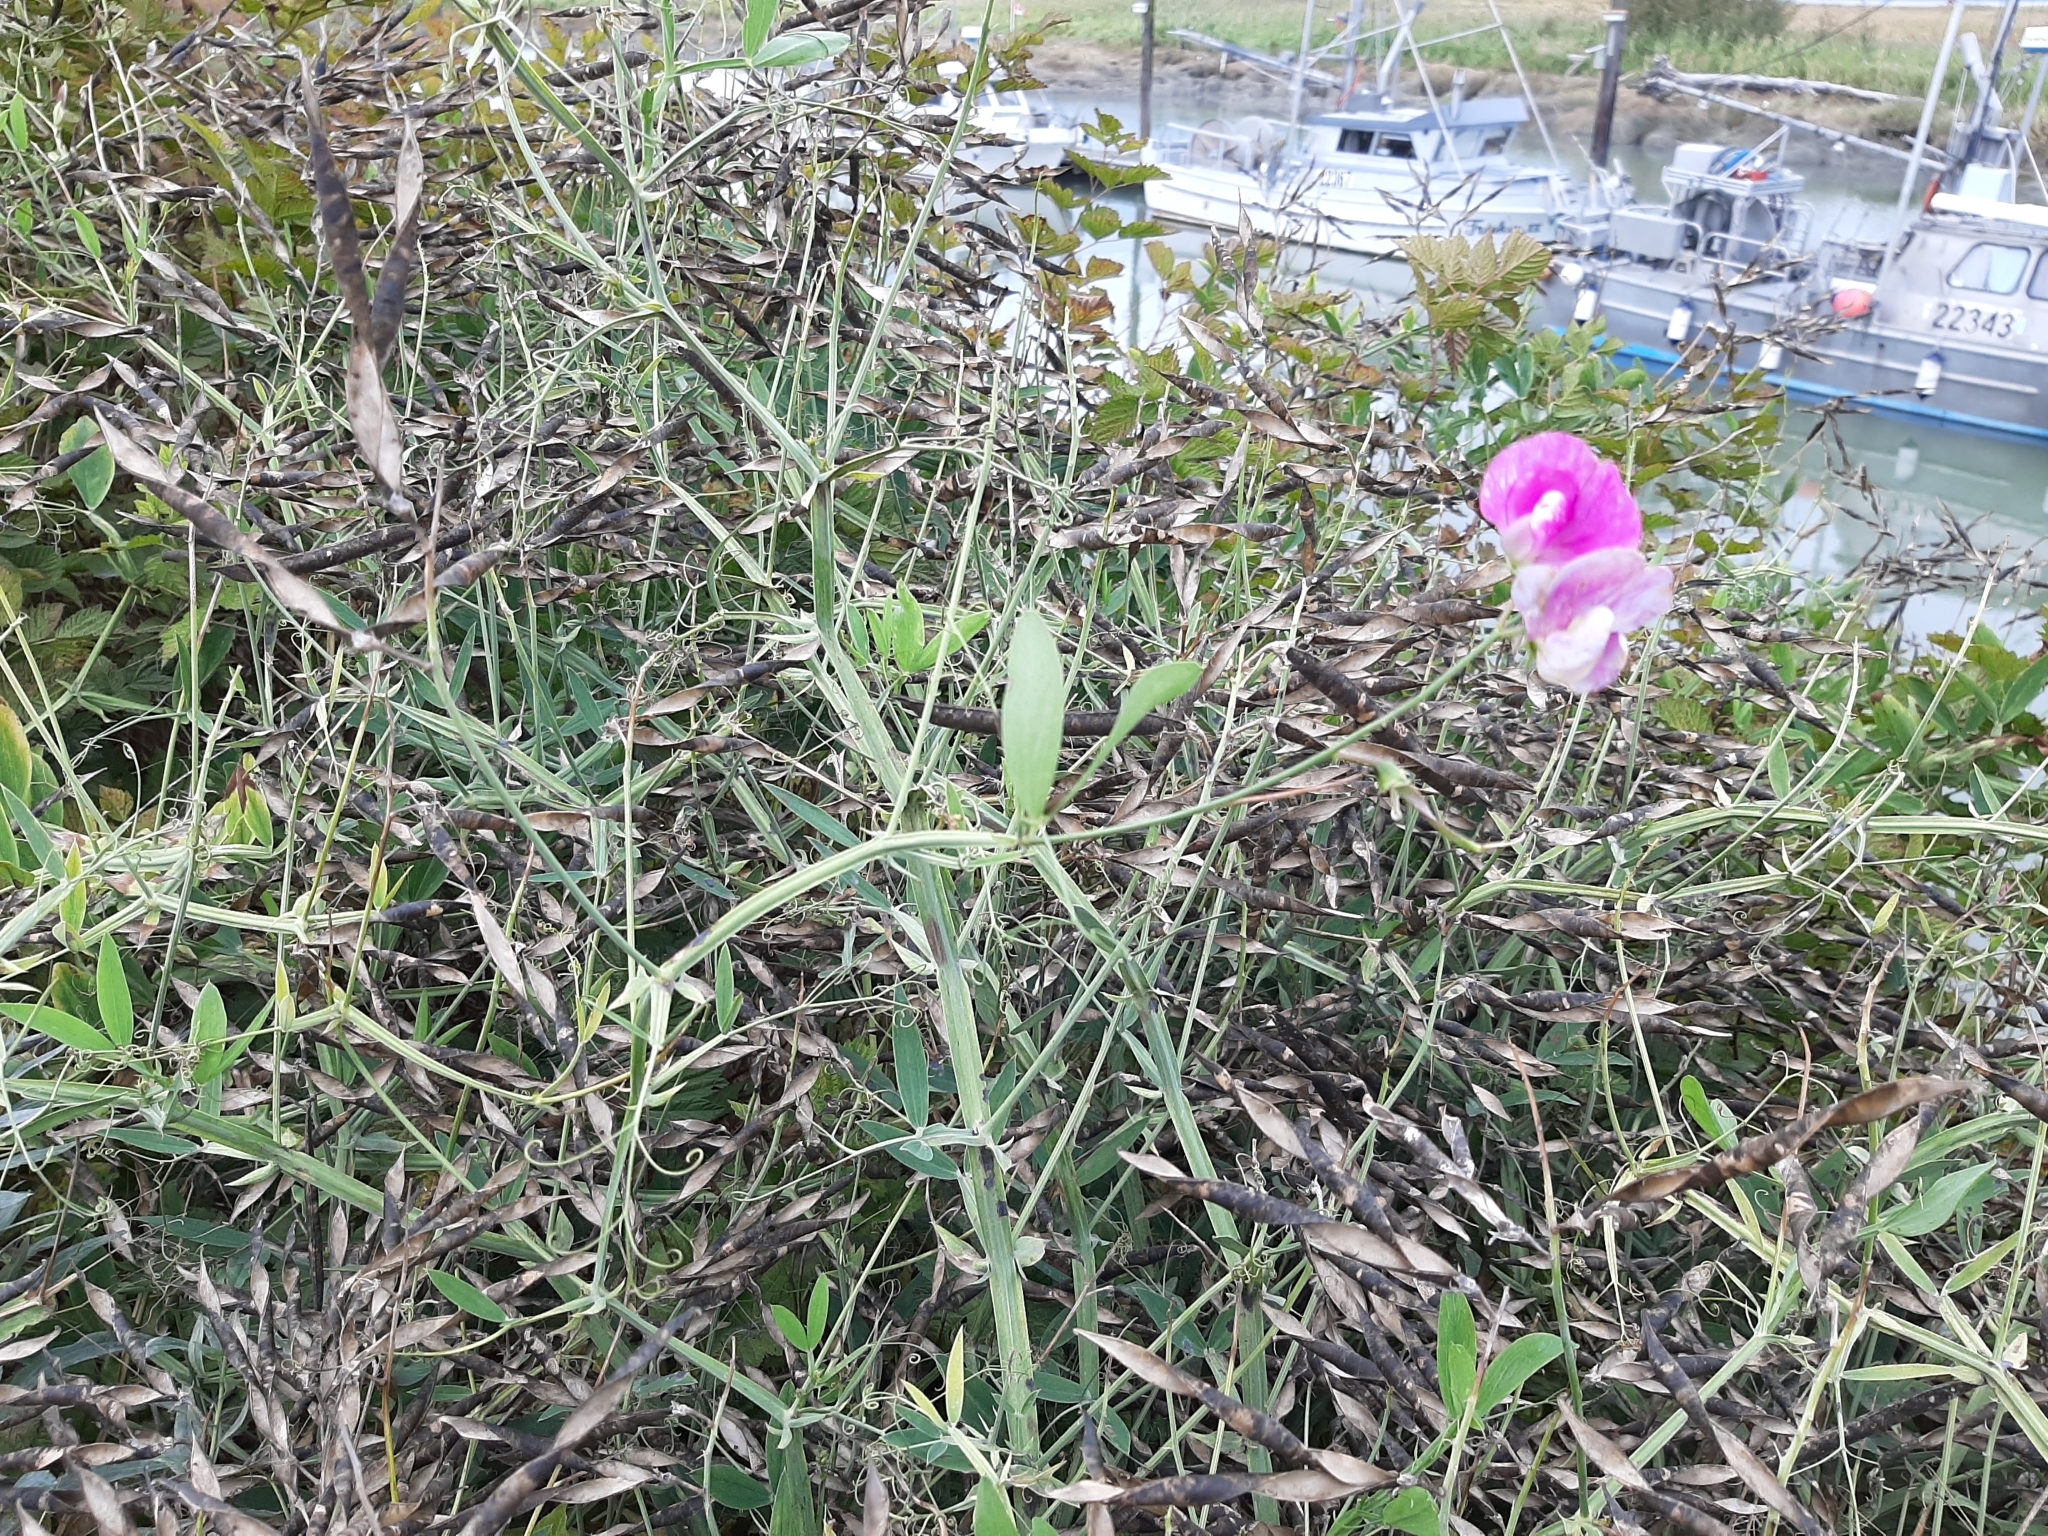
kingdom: Plantae
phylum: Tracheophyta
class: Magnoliopsida
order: Fabales
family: Fabaceae
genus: Lathyrus
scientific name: Lathyrus latifolius
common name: Perennial pea
